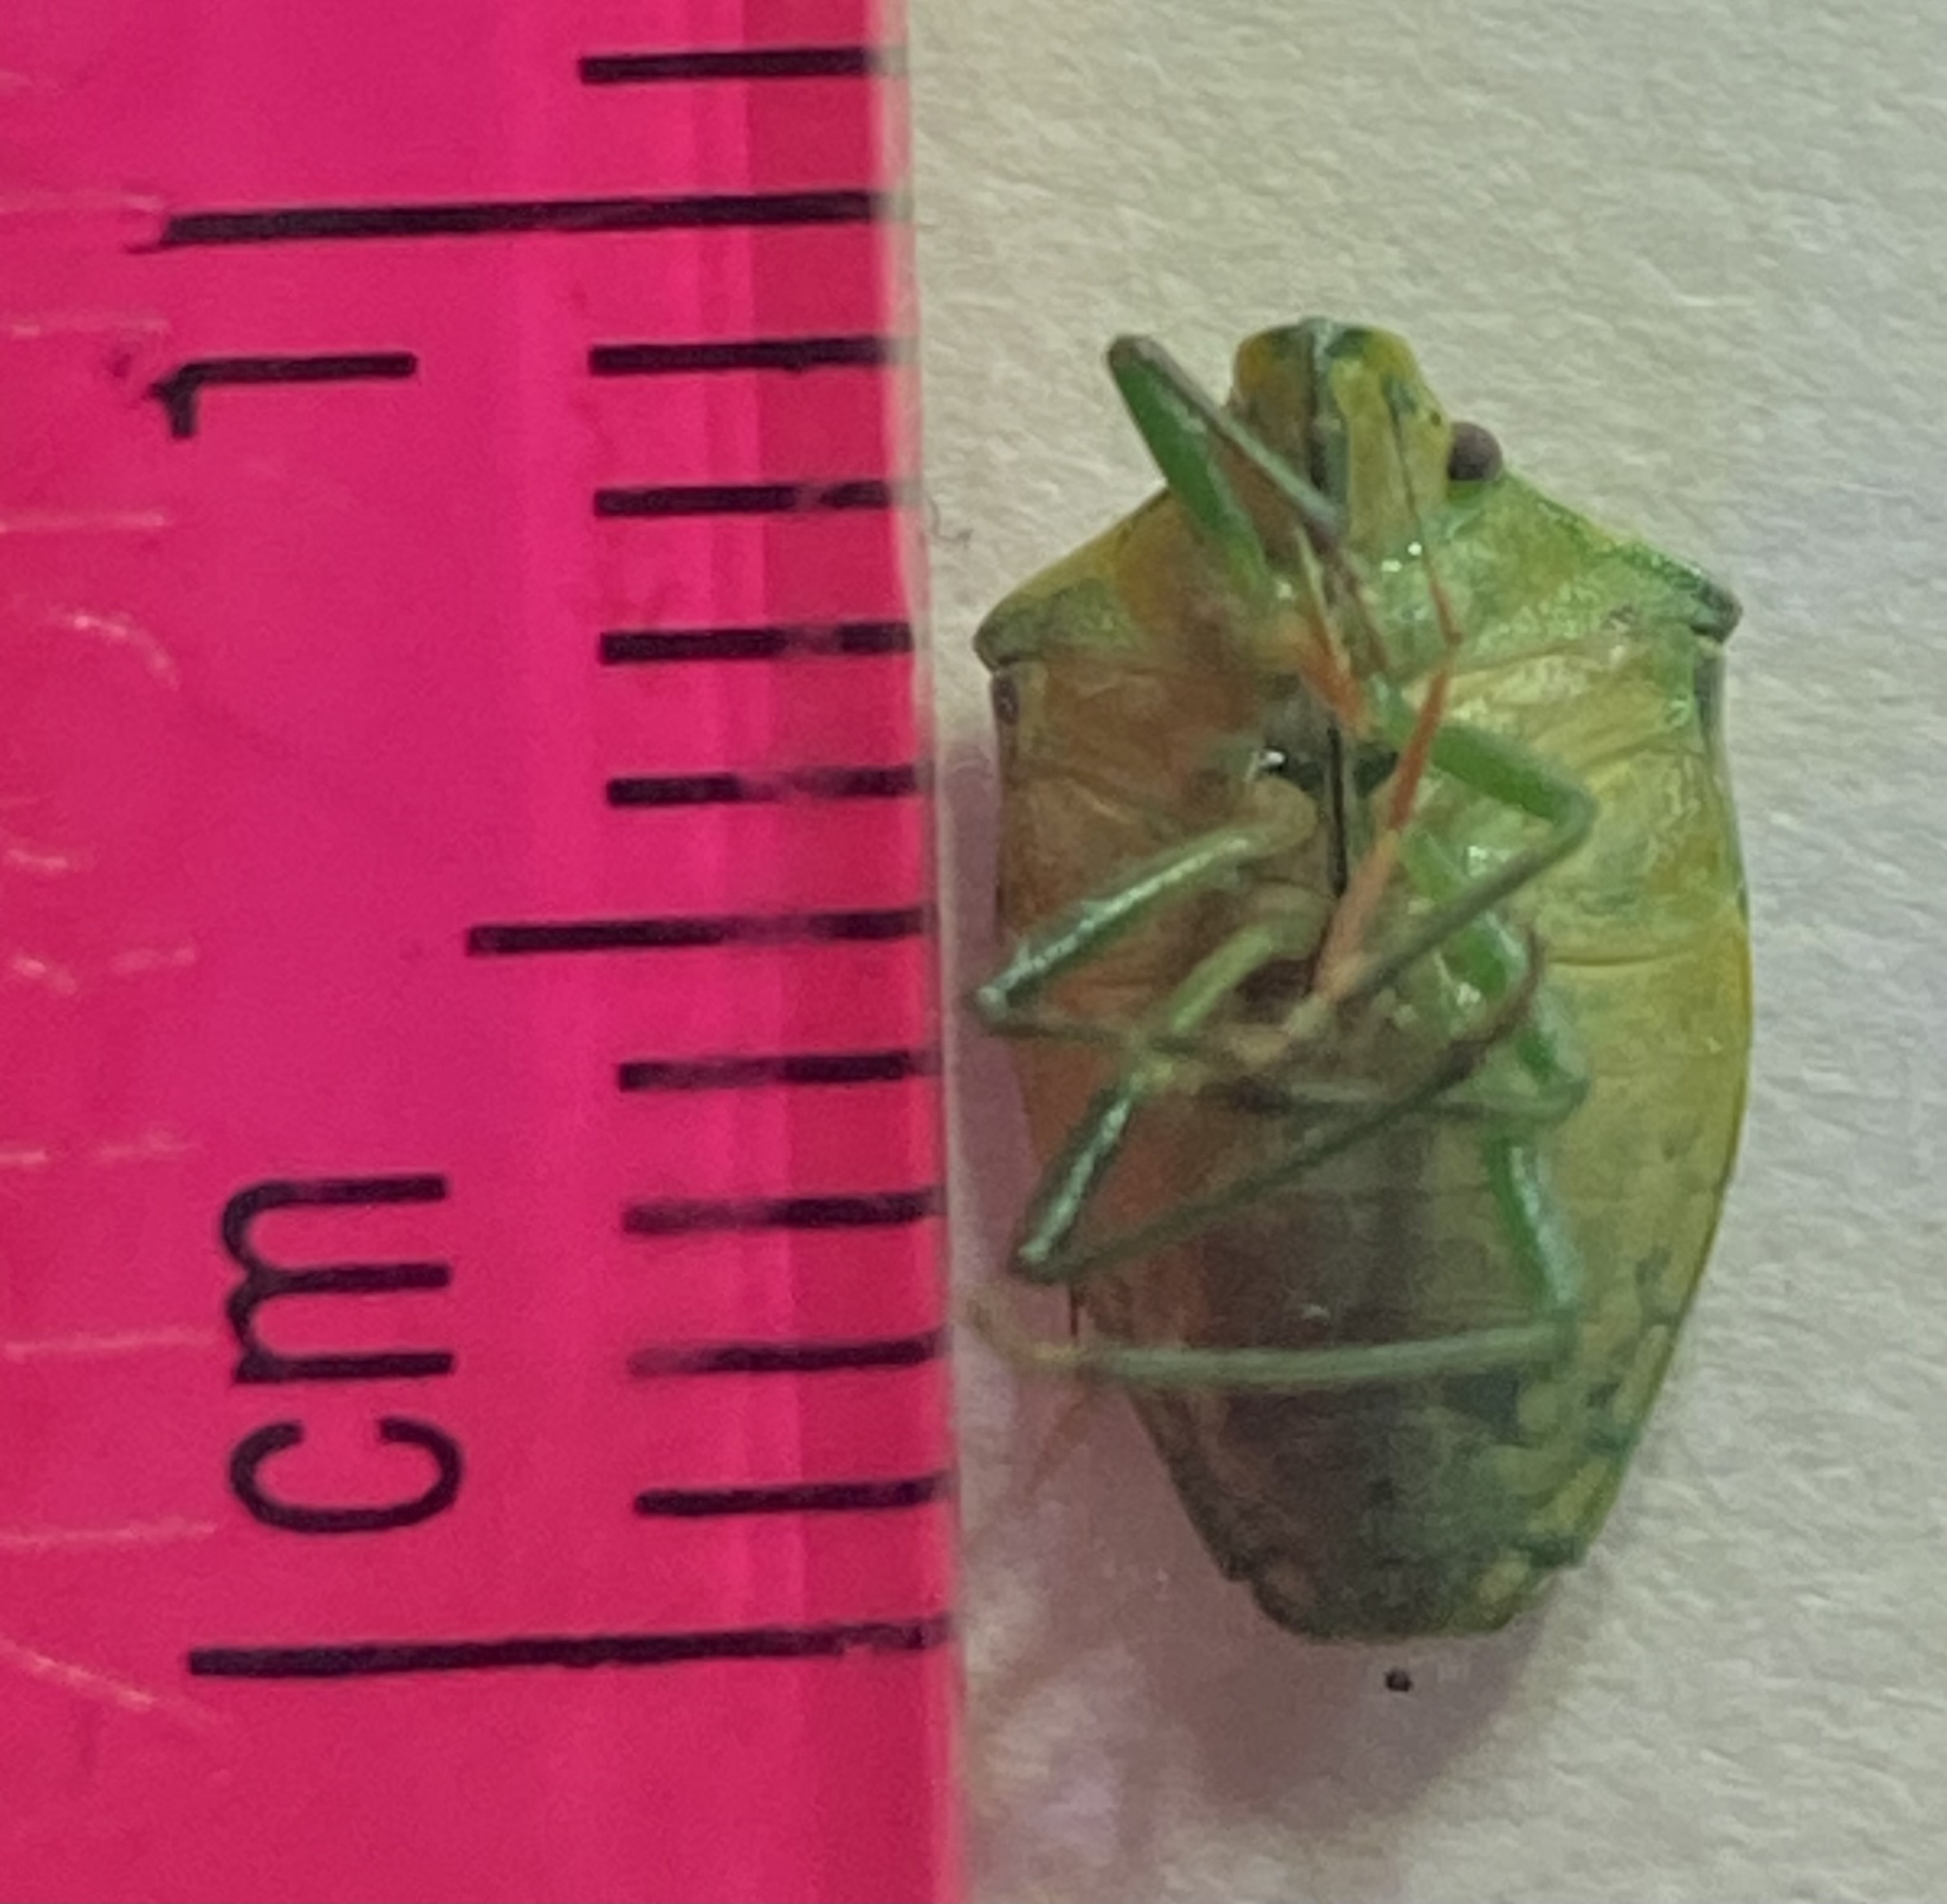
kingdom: Animalia
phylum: Arthropoda
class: Insecta
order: Hemiptera
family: Pentatomidae
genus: Thyanta
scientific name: Thyanta custator
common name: Stink bug
